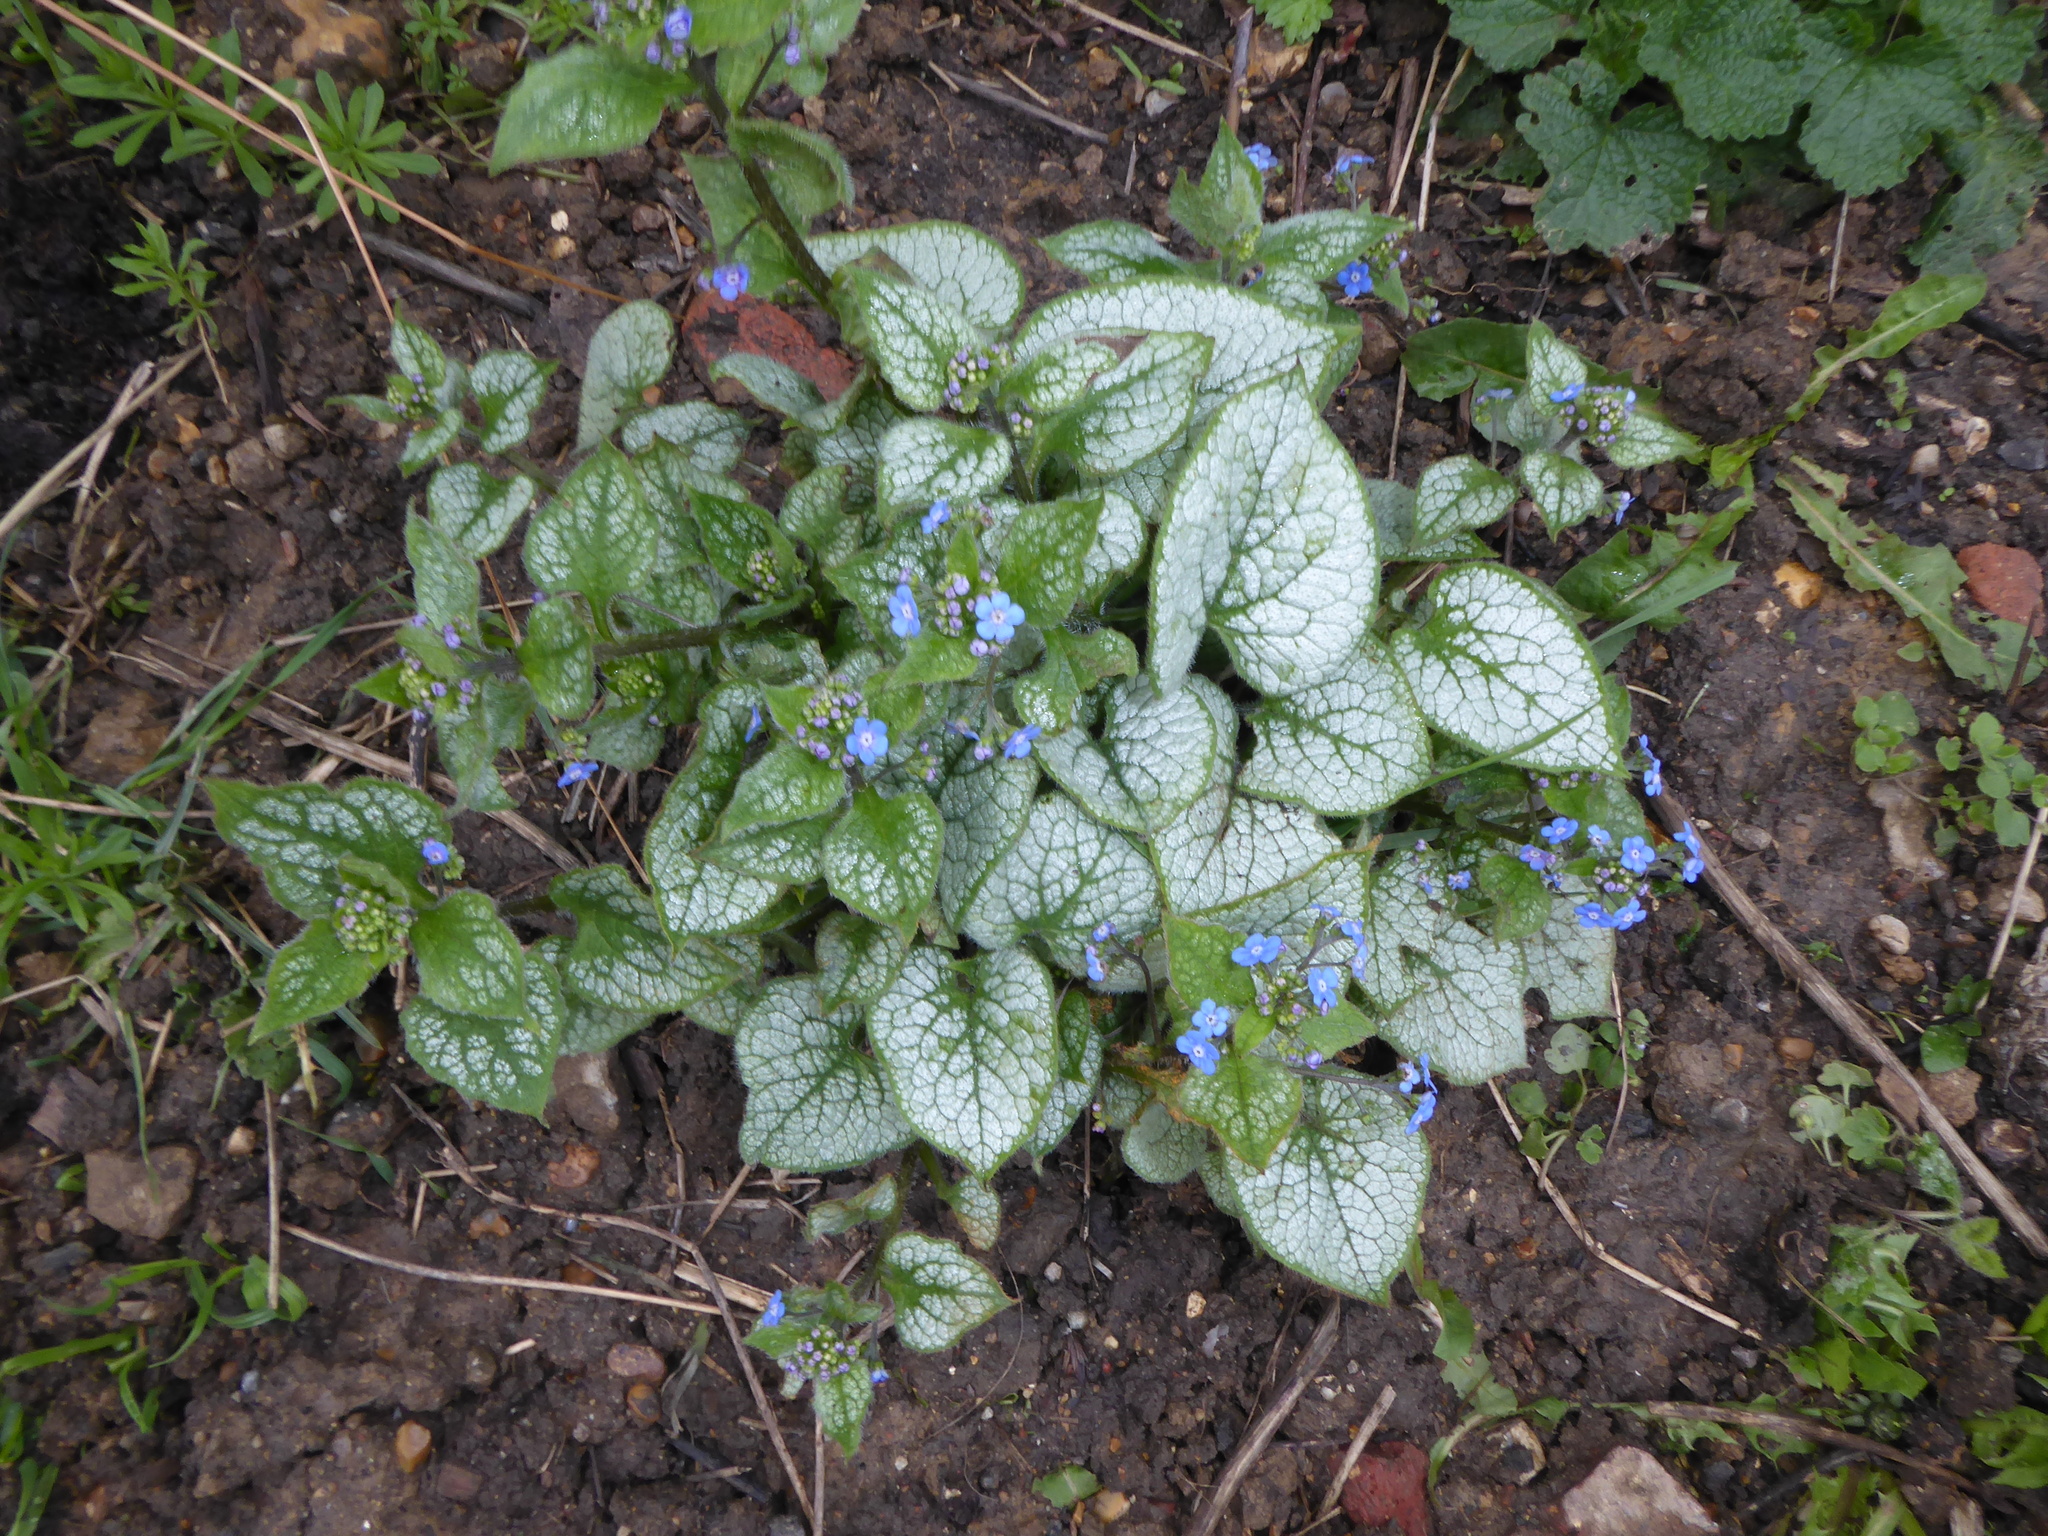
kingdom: Plantae
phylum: Tracheophyta
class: Magnoliopsida
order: Boraginales
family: Boraginaceae
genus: Brunnera
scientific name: Brunnera macrophylla
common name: Great forget-me-not
